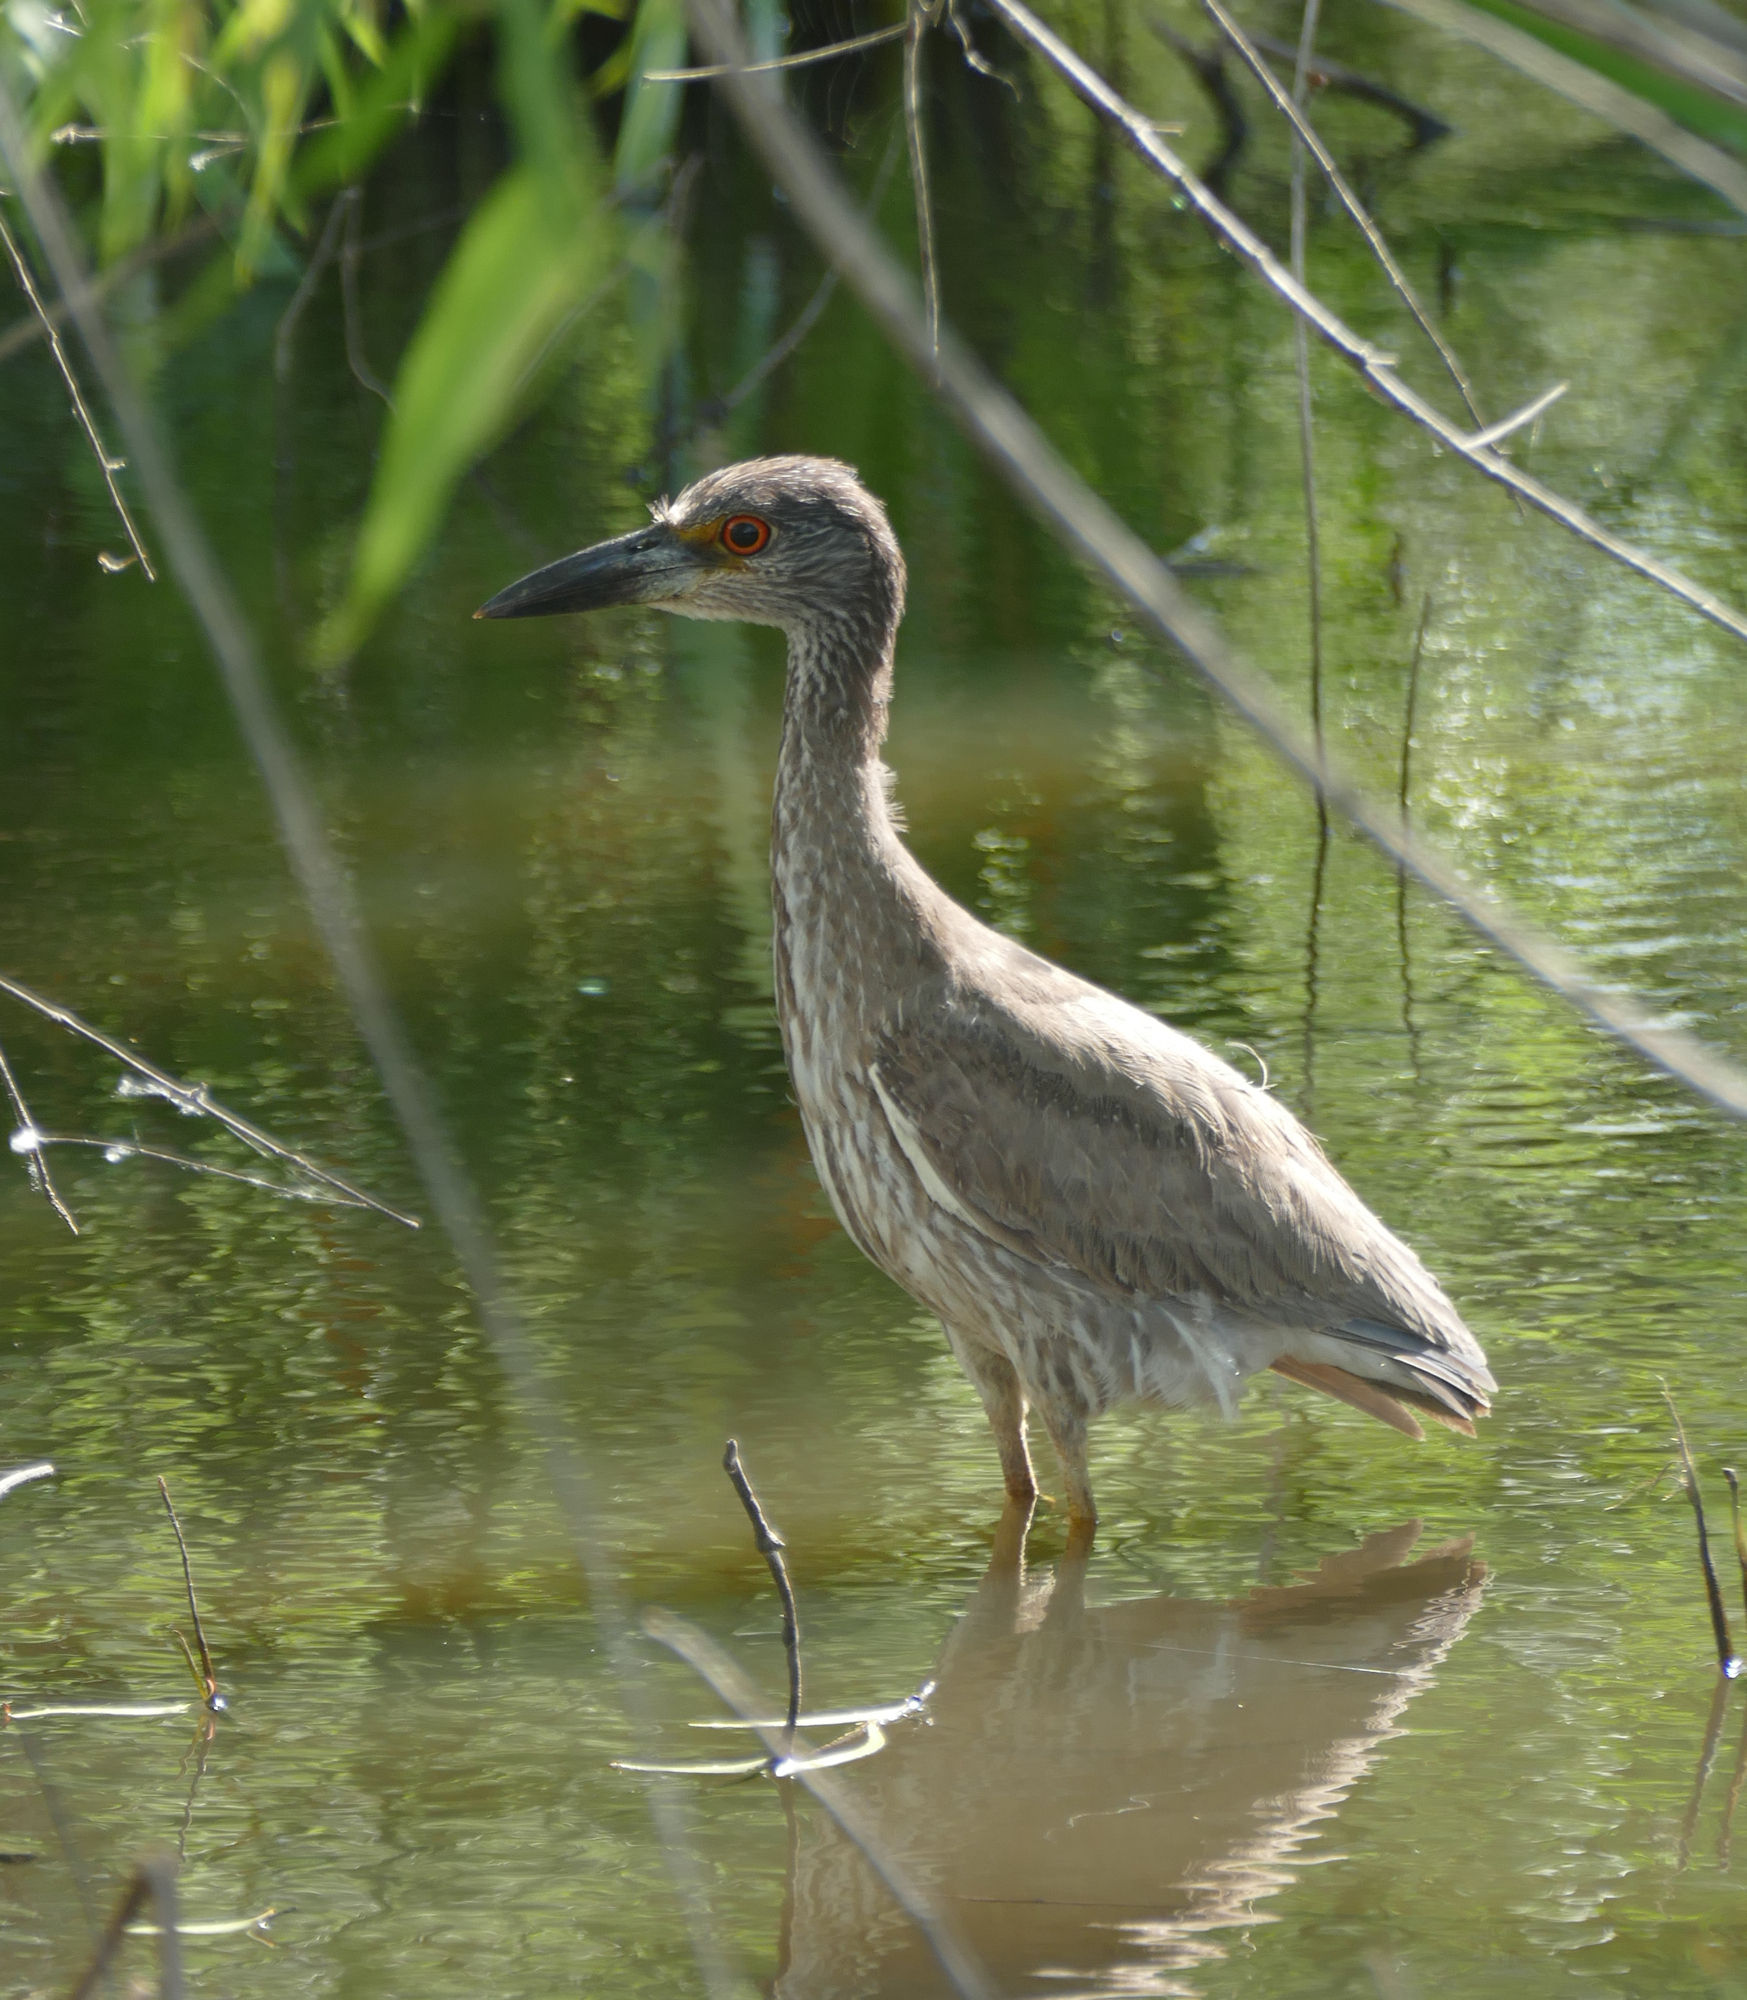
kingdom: Animalia
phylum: Chordata
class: Aves
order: Pelecaniformes
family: Ardeidae
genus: Nyctanassa
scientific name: Nyctanassa violacea
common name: Yellow-crowned night heron
